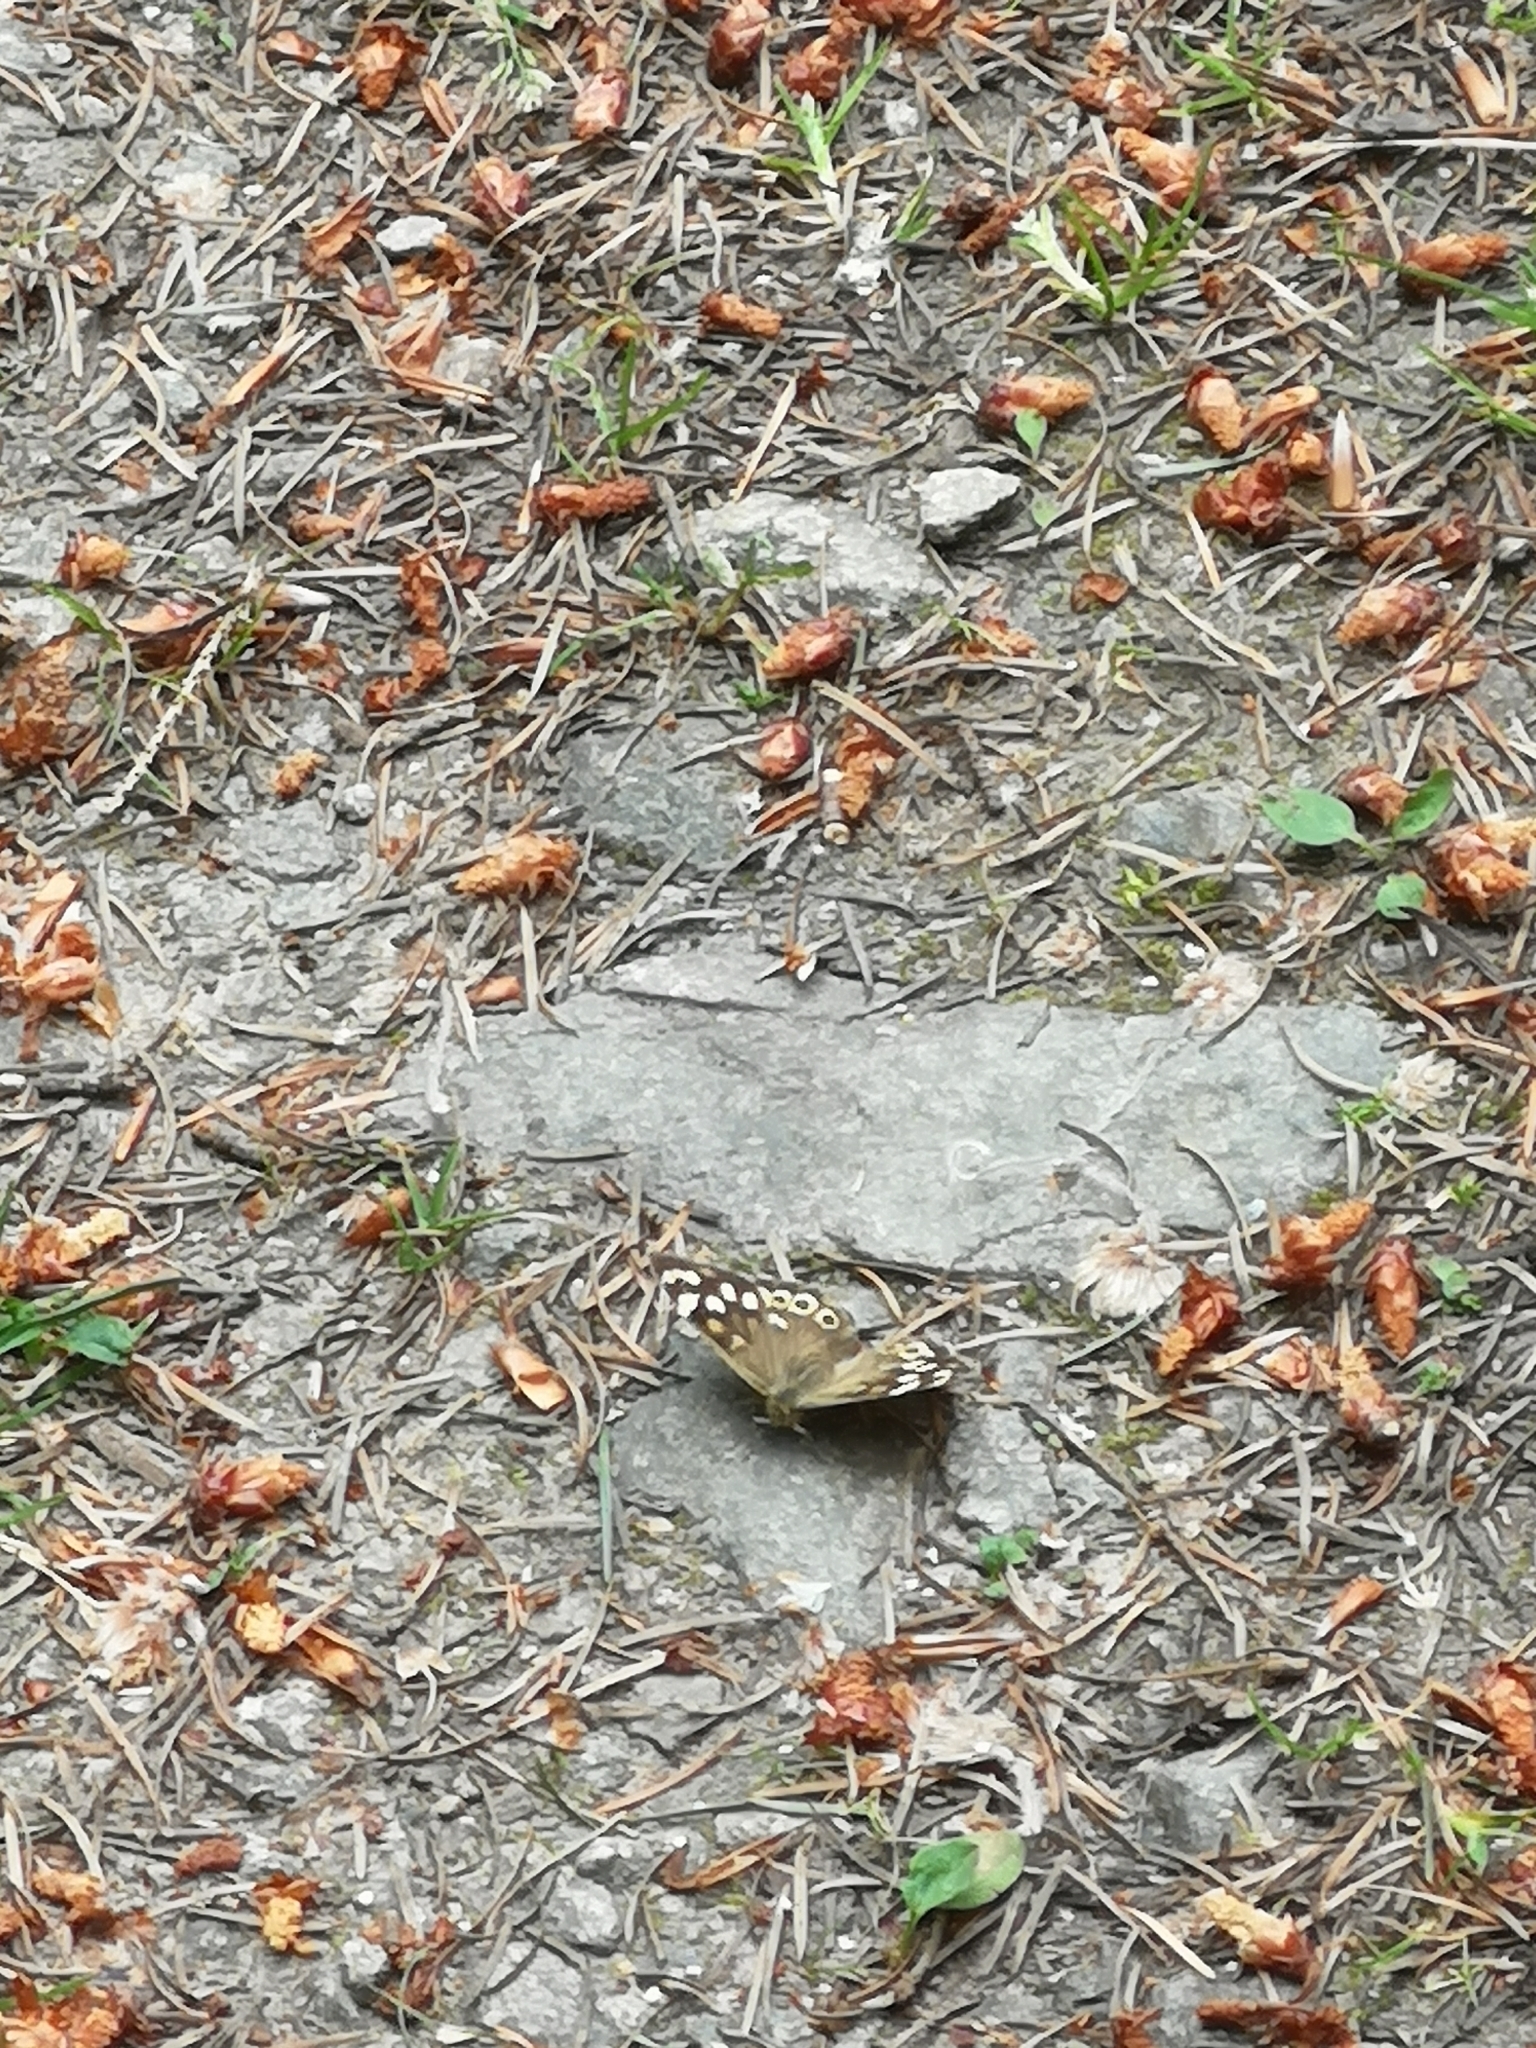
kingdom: Animalia
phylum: Arthropoda
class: Insecta
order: Lepidoptera
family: Nymphalidae
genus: Pararge
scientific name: Pararge aegeria
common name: Speckled wood
